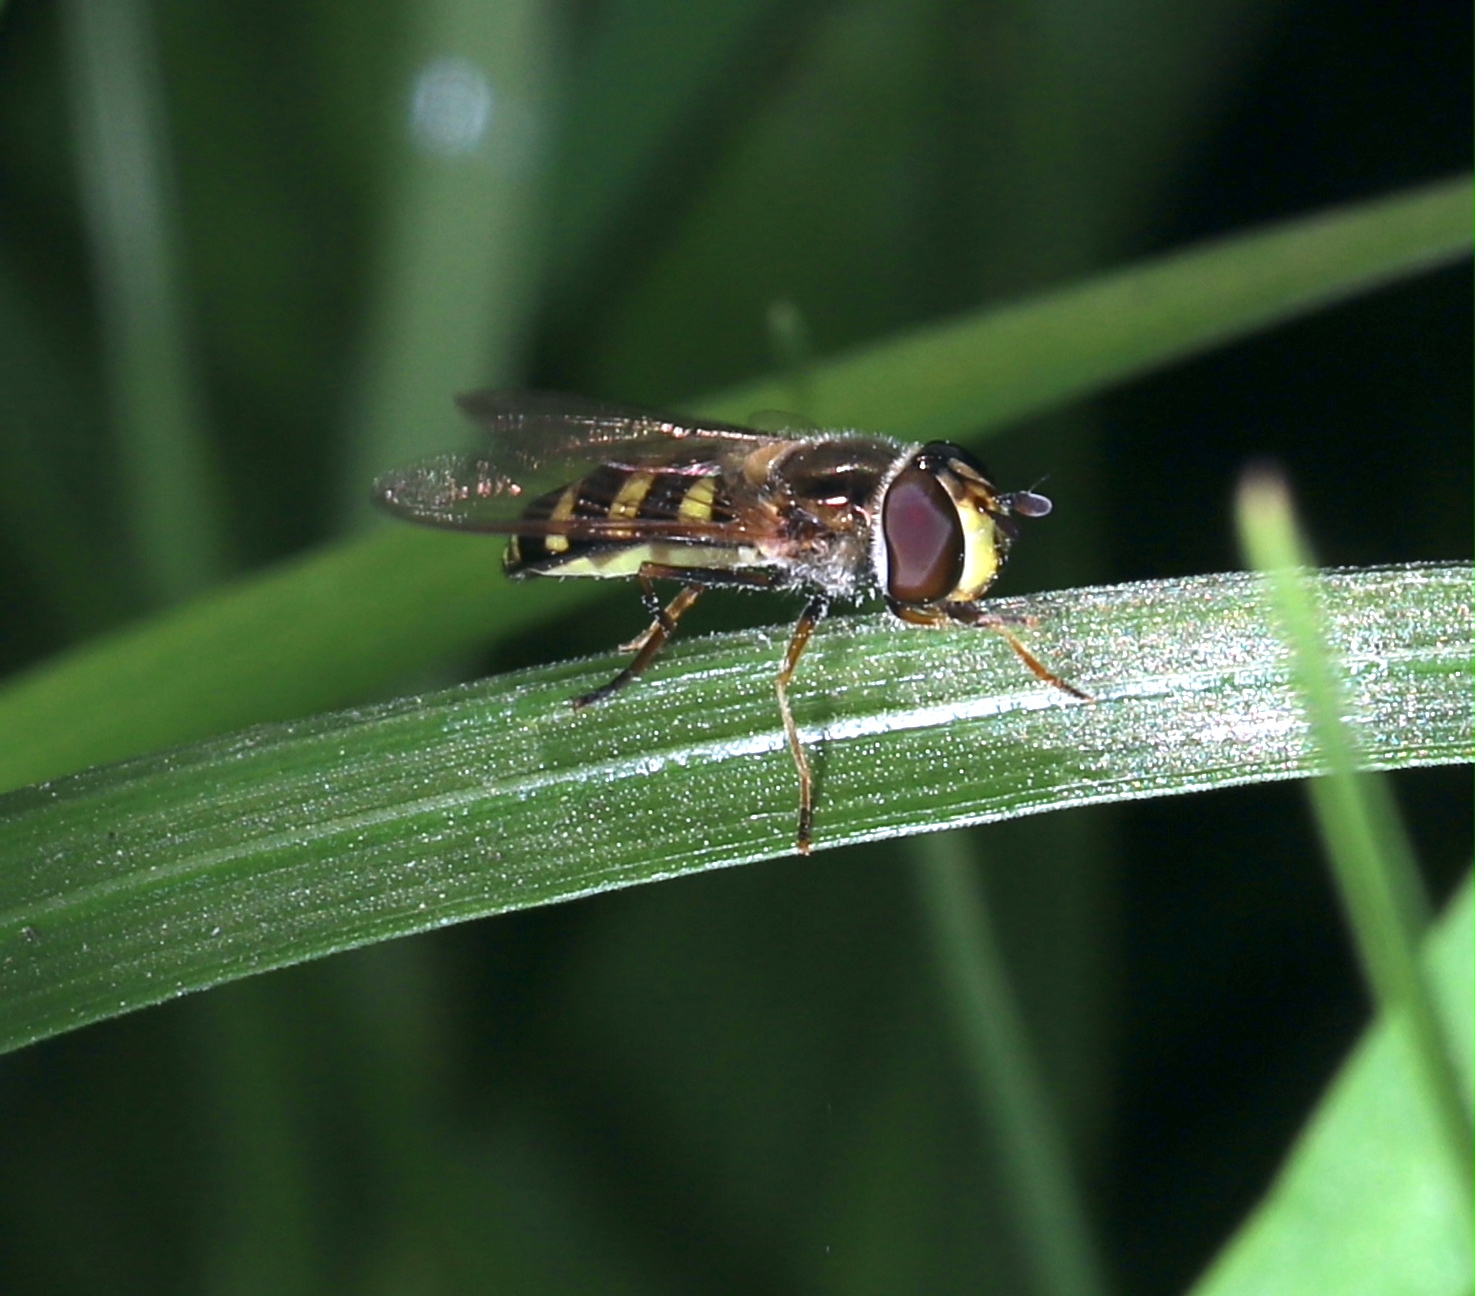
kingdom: Animalia
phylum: Arthropoda
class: Insecta
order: Diptera
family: Syrphidae
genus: Eupeodes
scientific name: Eupeodes
